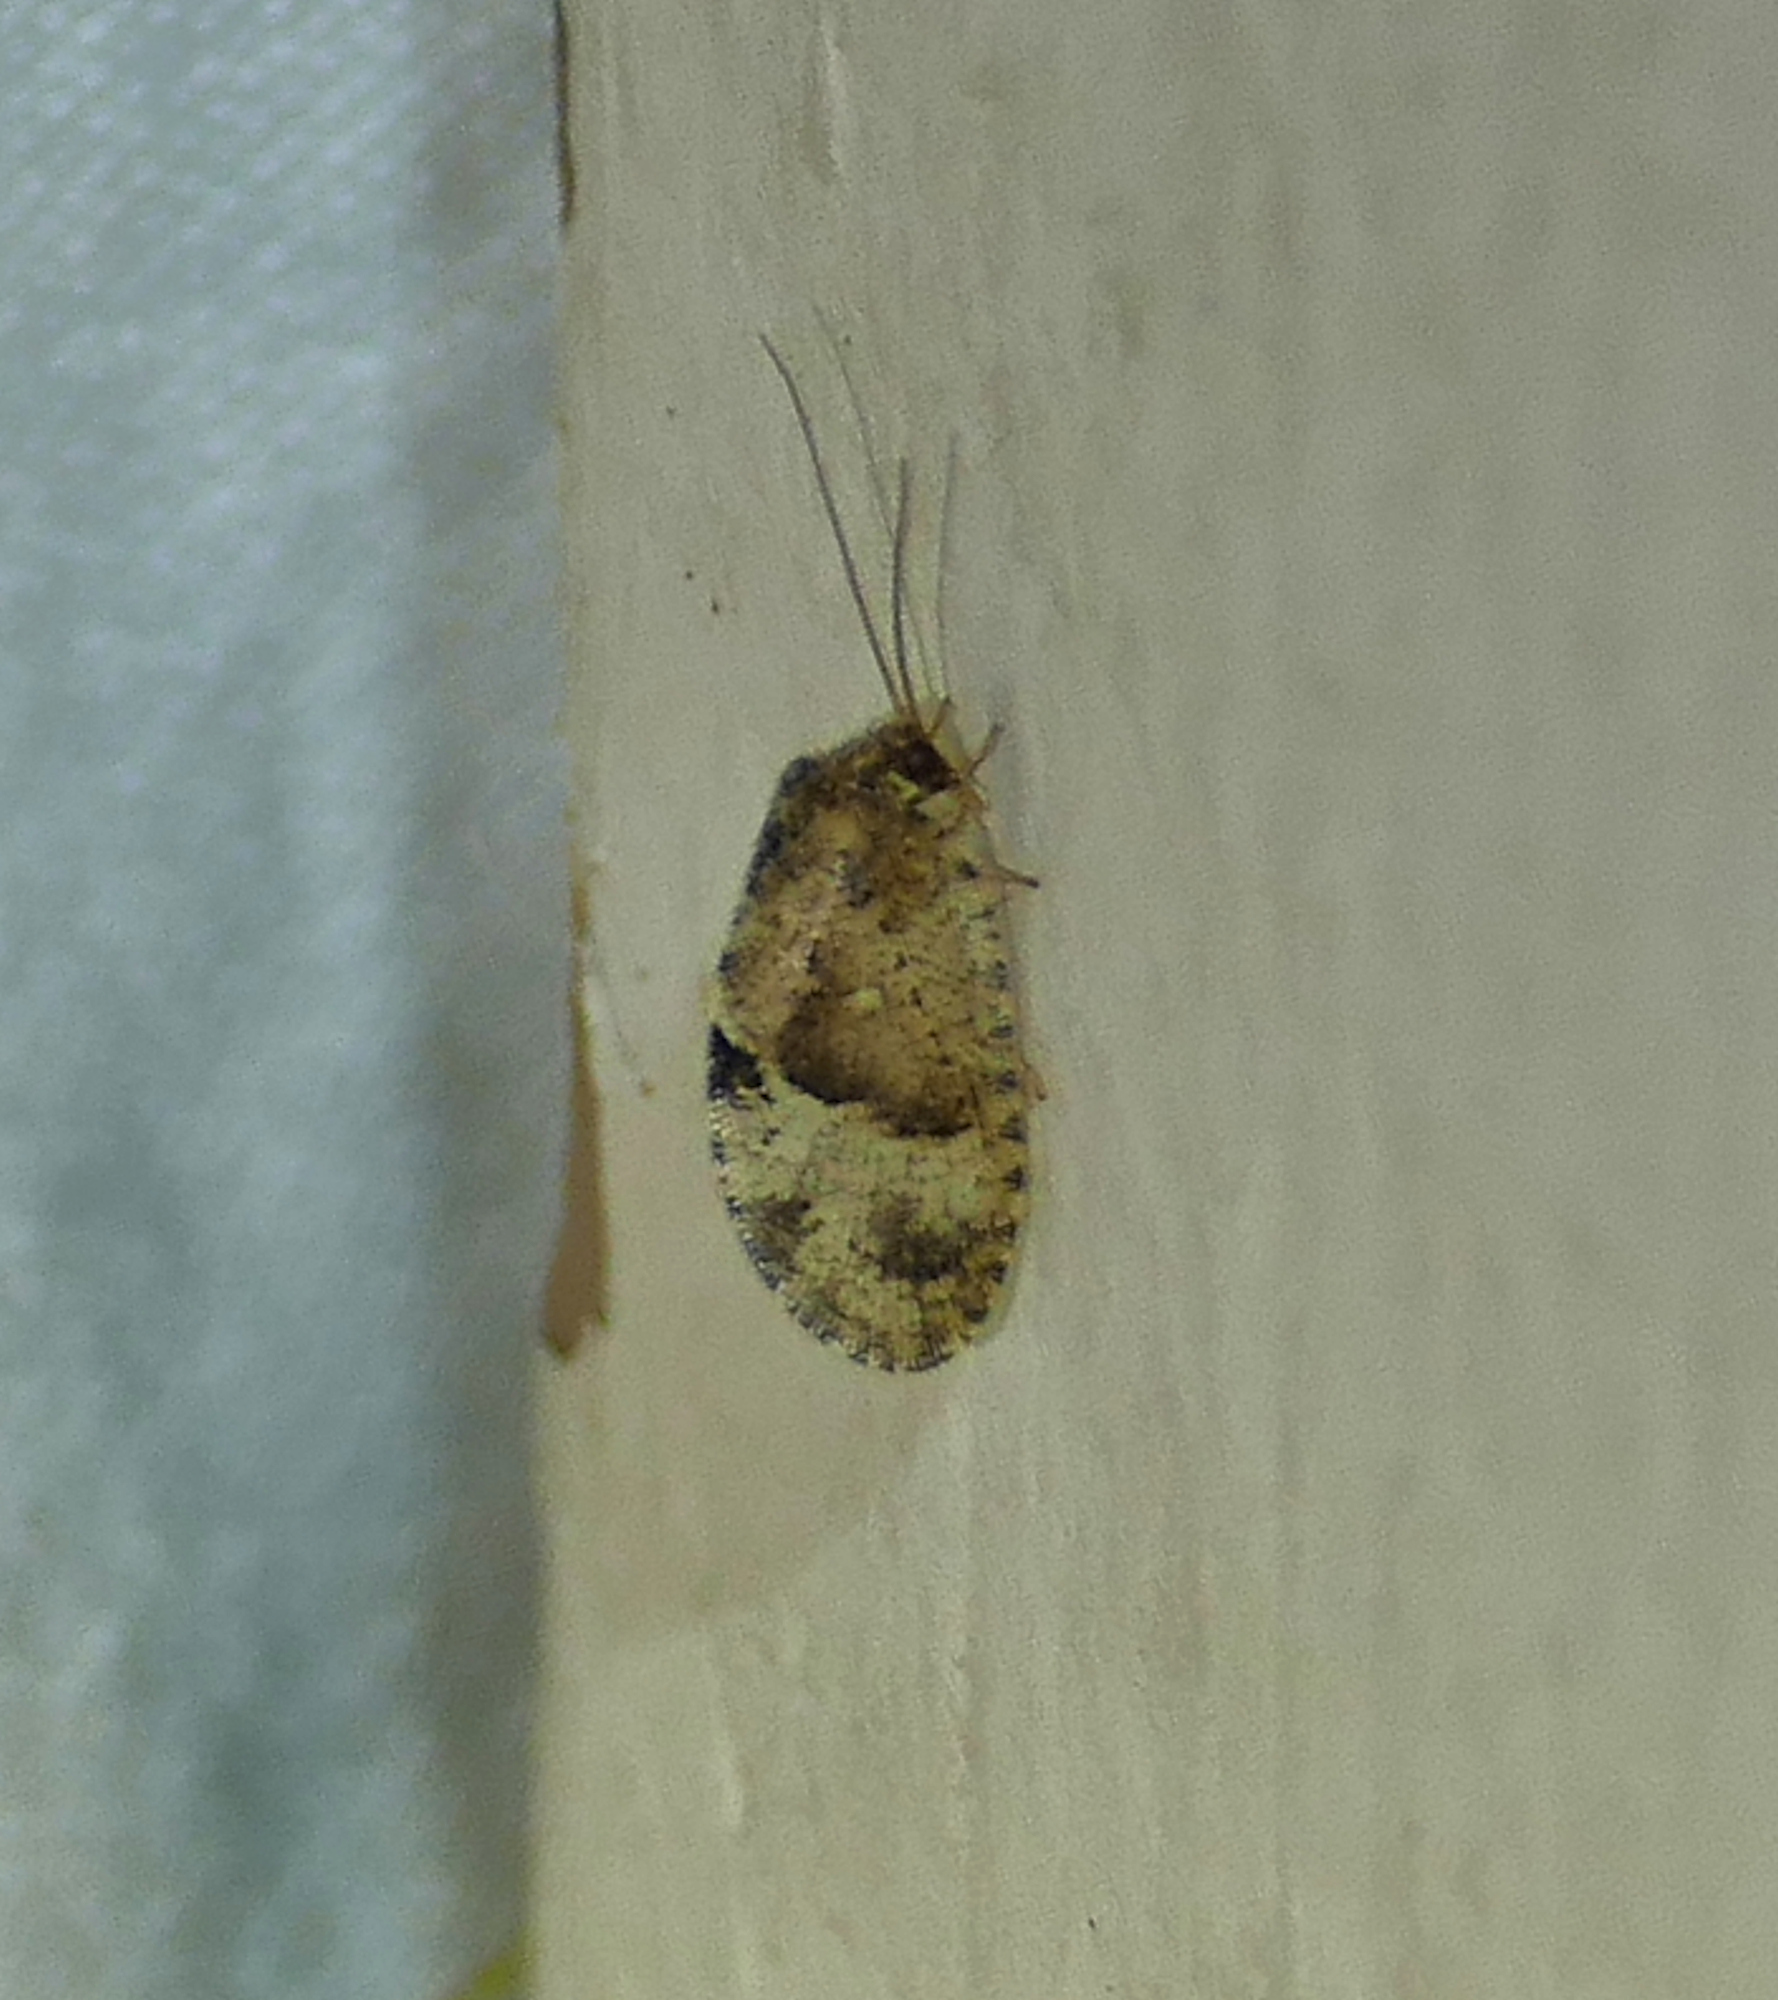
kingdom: Animalia
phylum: Arthropoda
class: Insecta
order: Neuroptera
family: Hemerobiidae
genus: Megalomus
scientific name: Megalomus moestus
